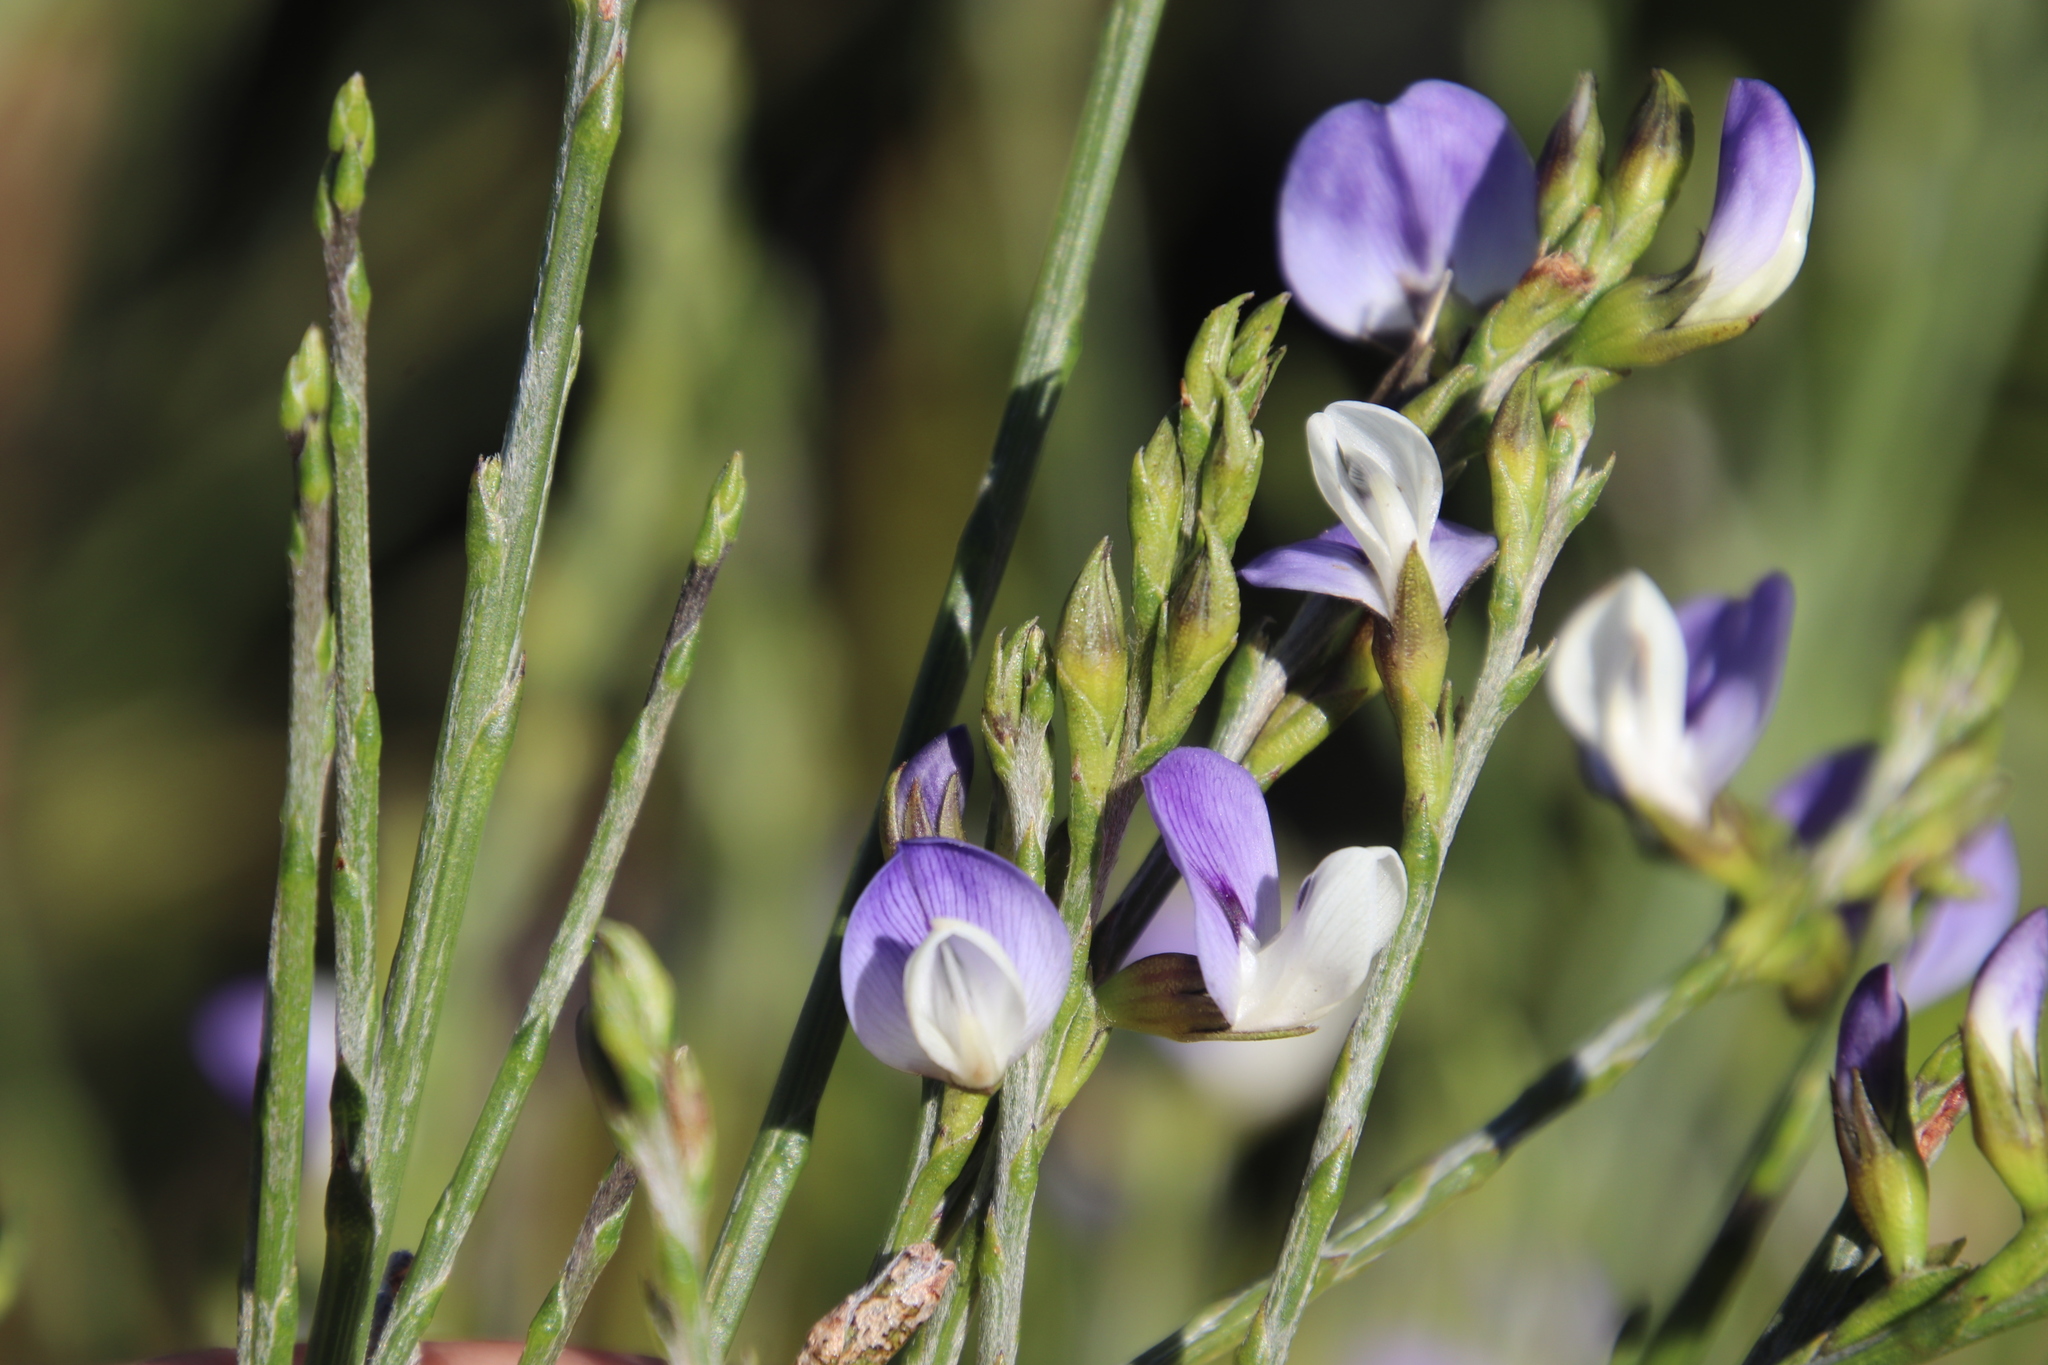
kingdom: Plantae
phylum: Tracheophyta
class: Magnoliopsida
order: Fabales
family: Fabaceae
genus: Psoralea
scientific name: Psoralea aphylla
